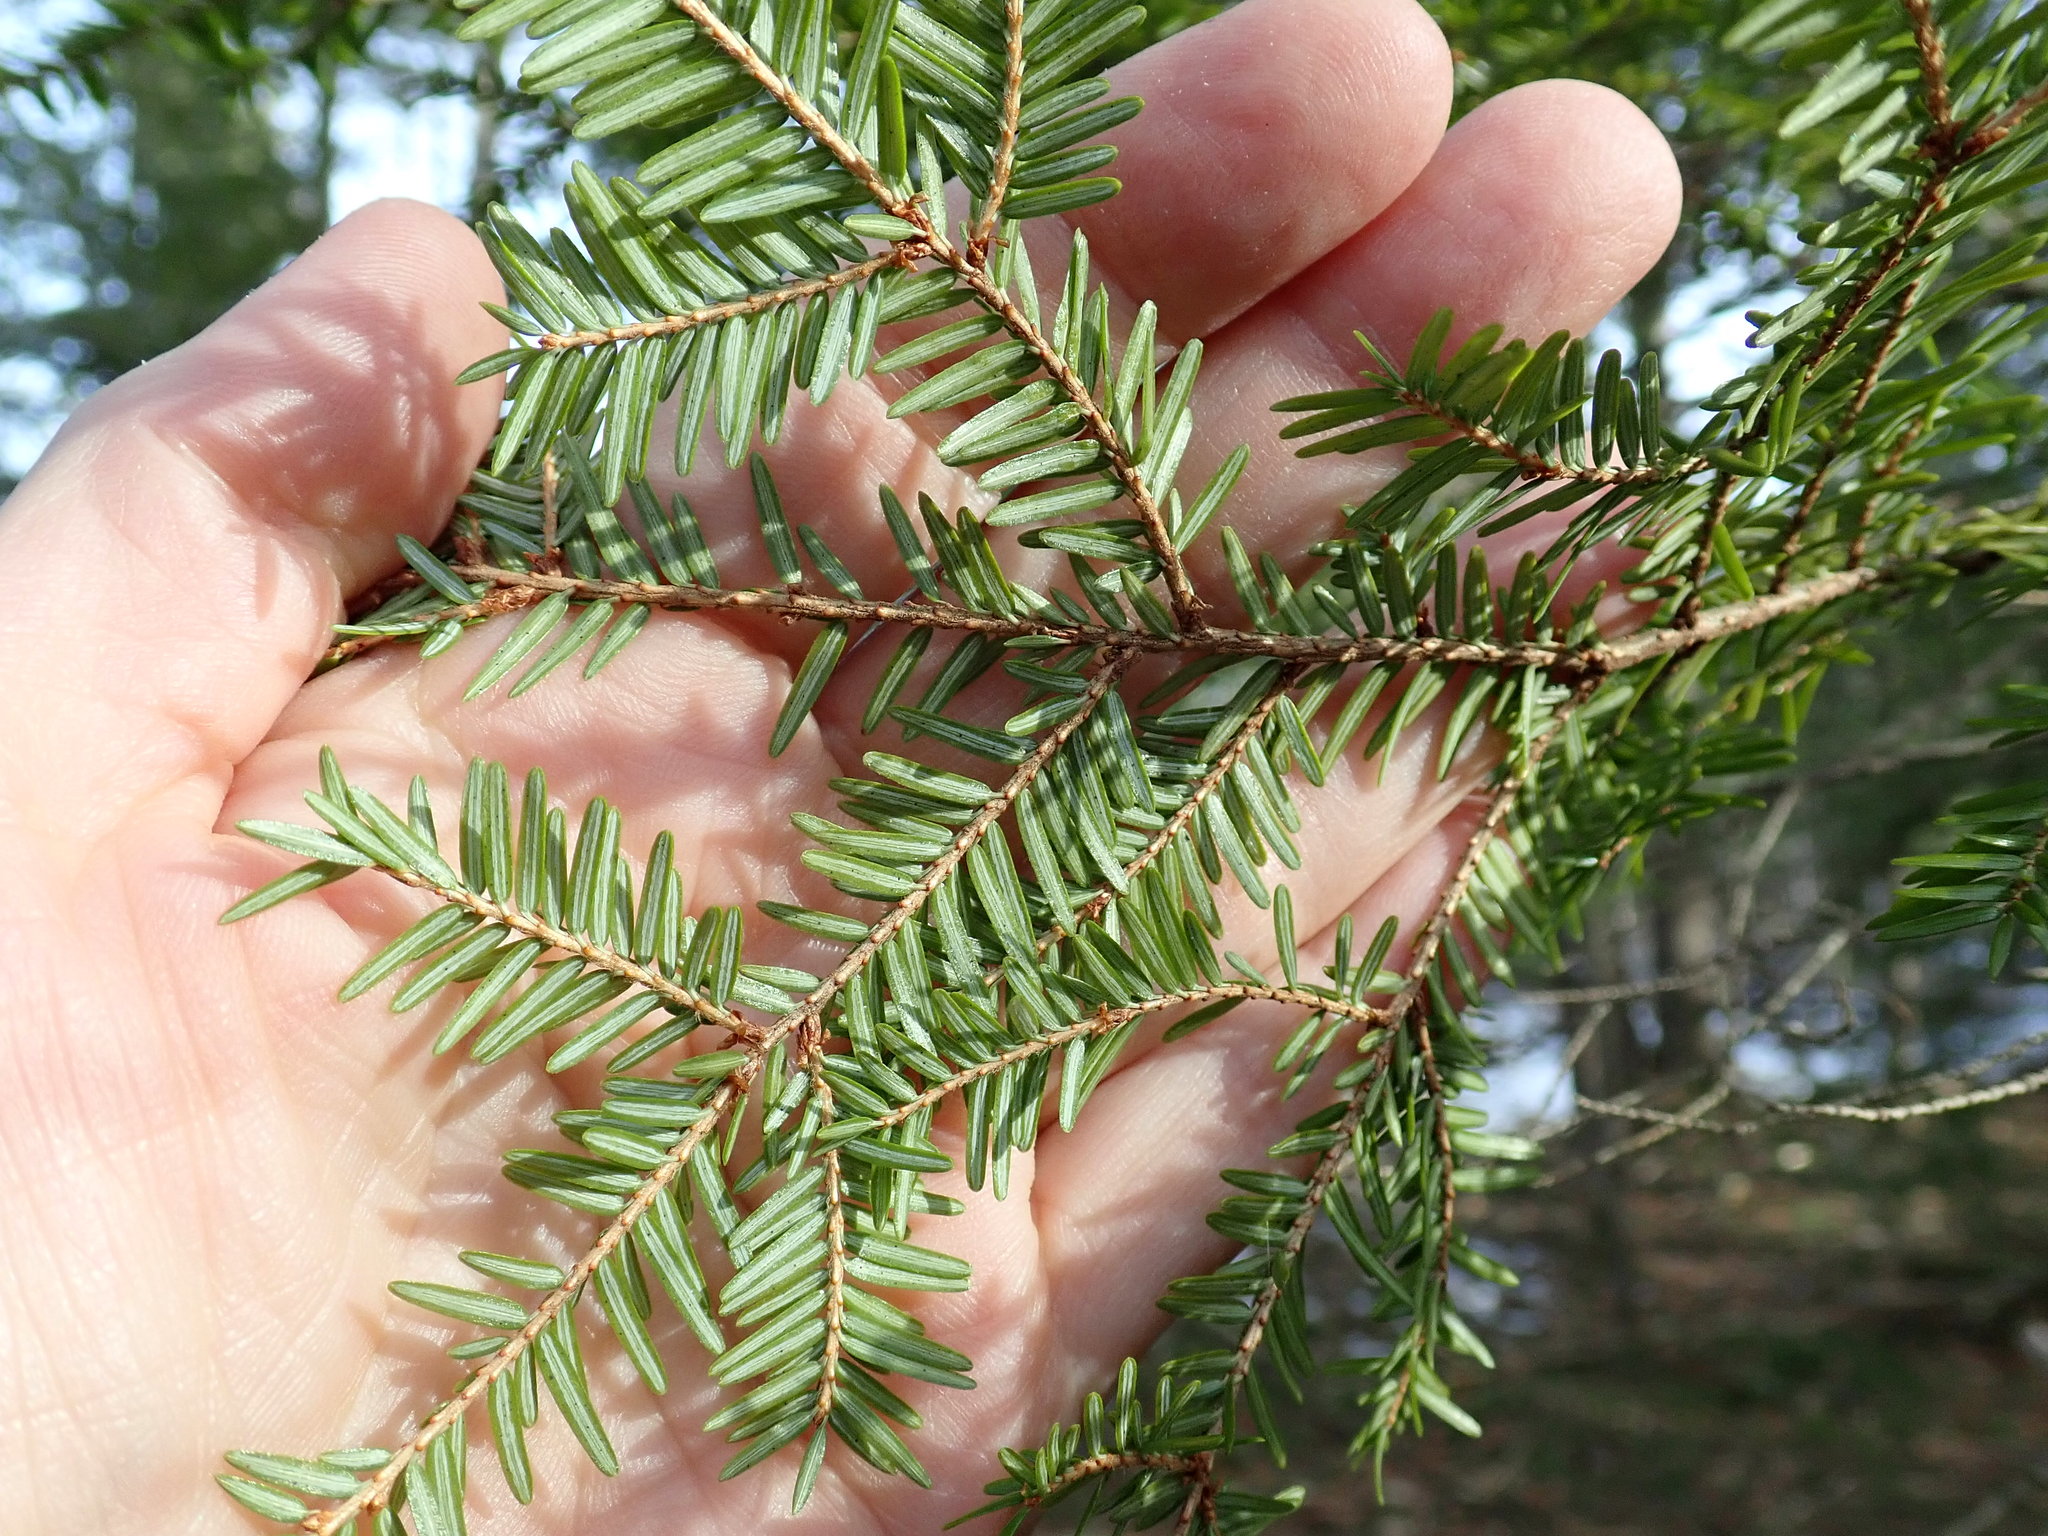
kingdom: Plantae
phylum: Tracheophyta
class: Pinopsida
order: Pinales
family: Pinaceae
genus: Tsuga
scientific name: Tsuga canadensis
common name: Eastern hemlock
